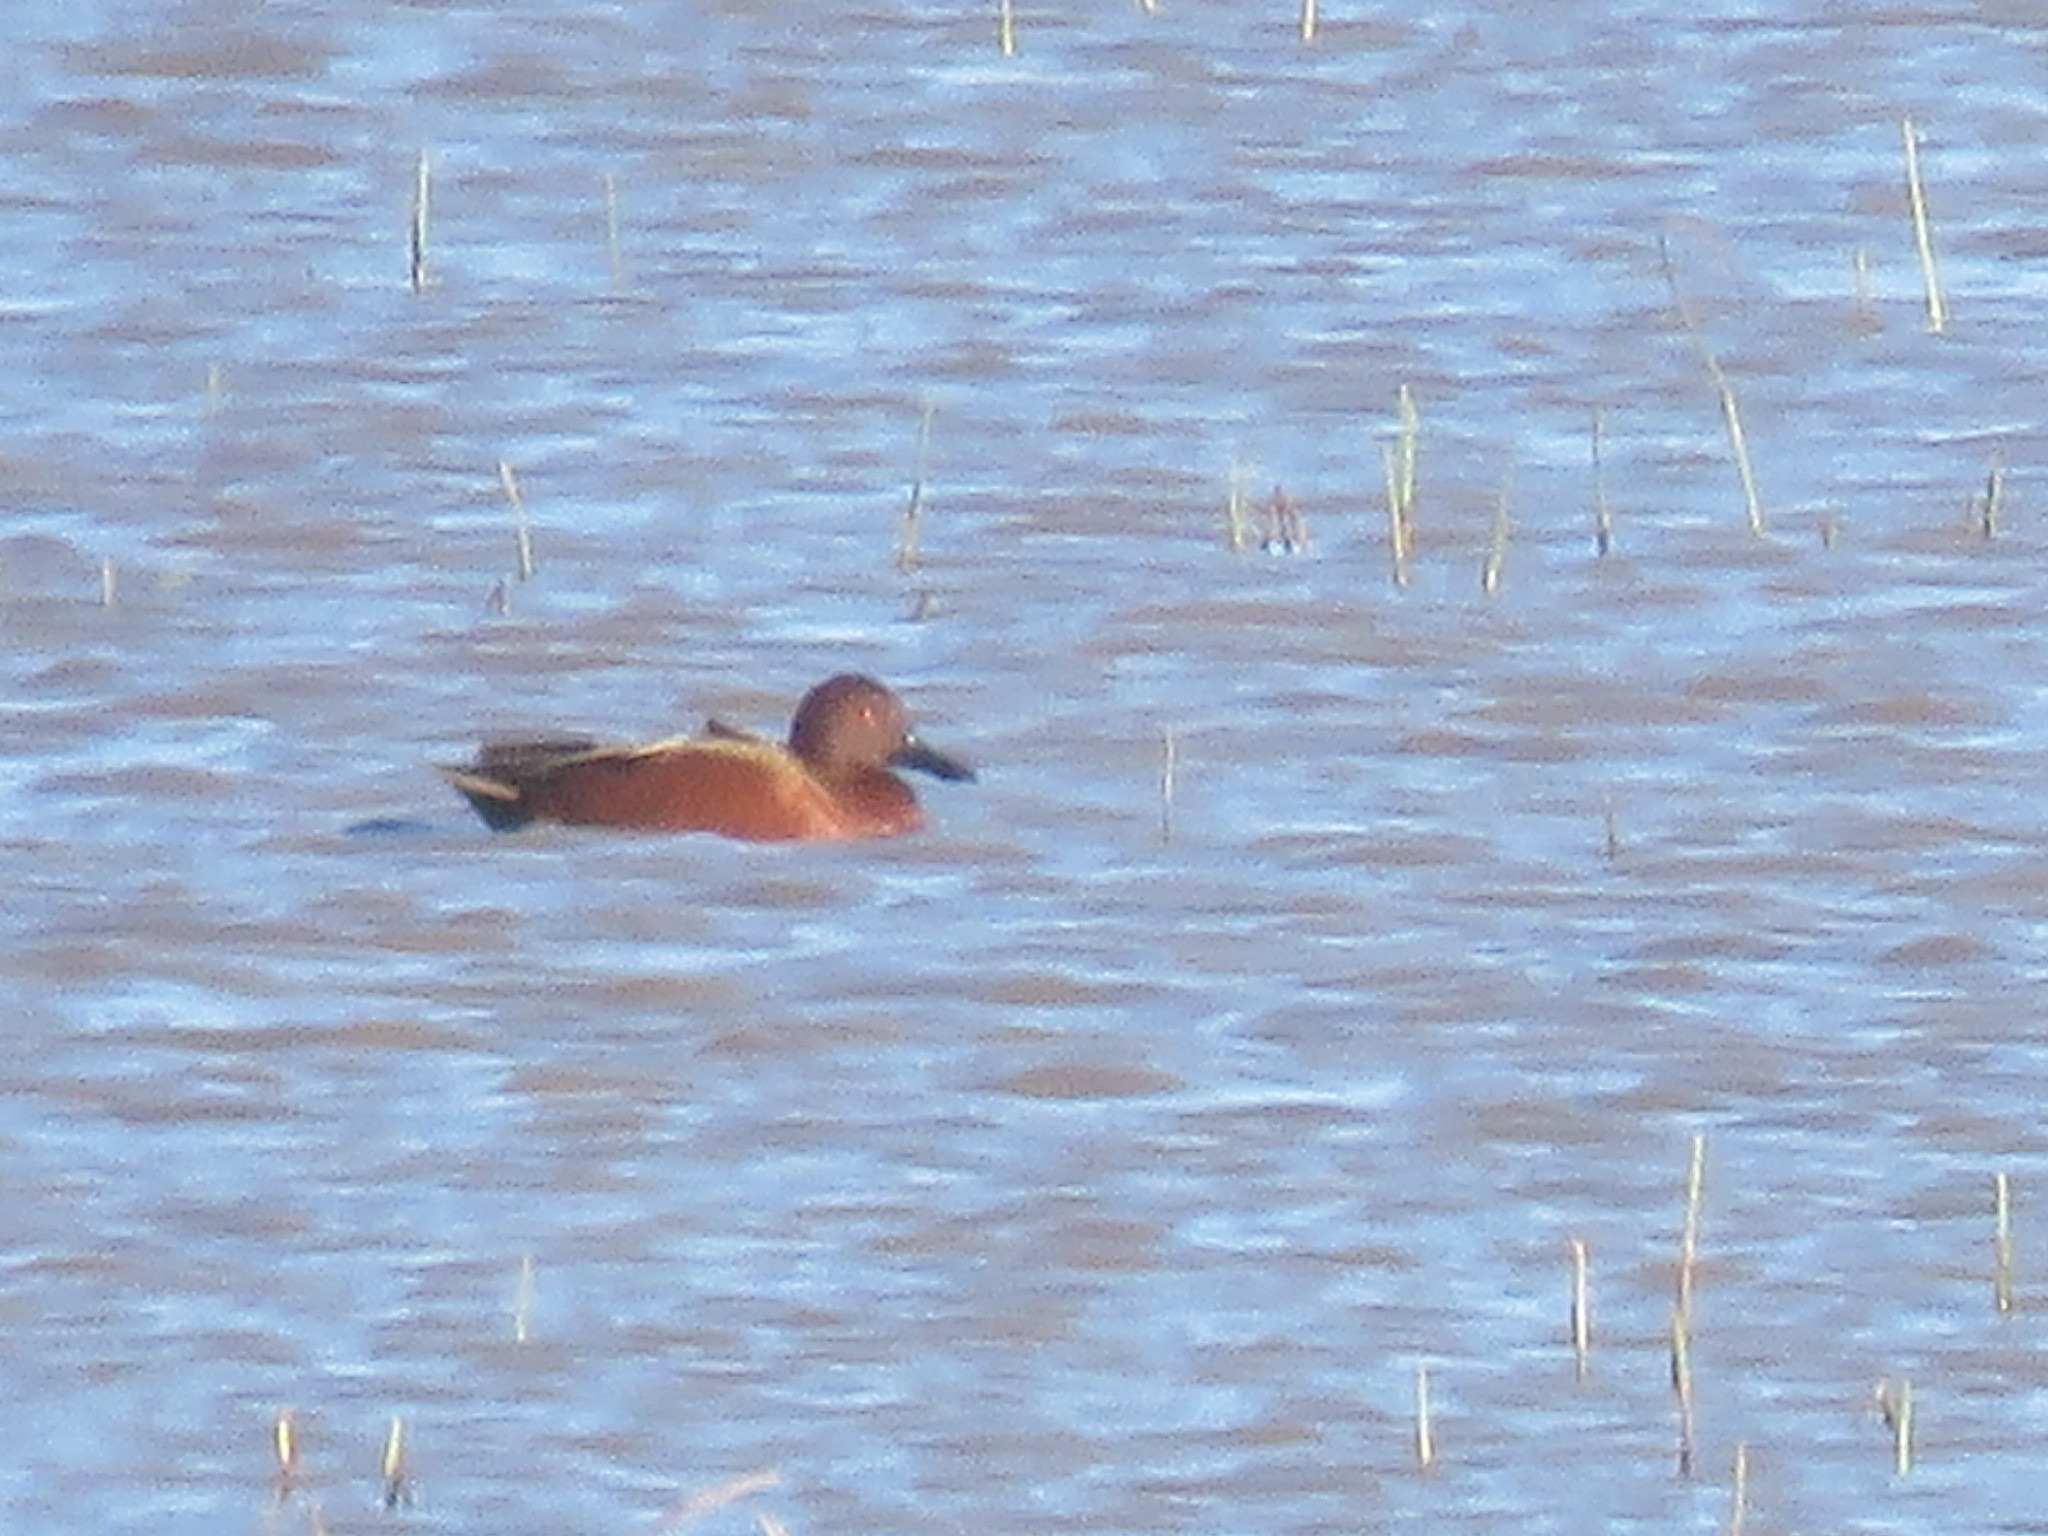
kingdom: Animalia
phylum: Chordata
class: Aves
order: Anseriformes
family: Anatidae
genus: Spatula
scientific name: Spatula cyanoptera
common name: Cinnamon teal
